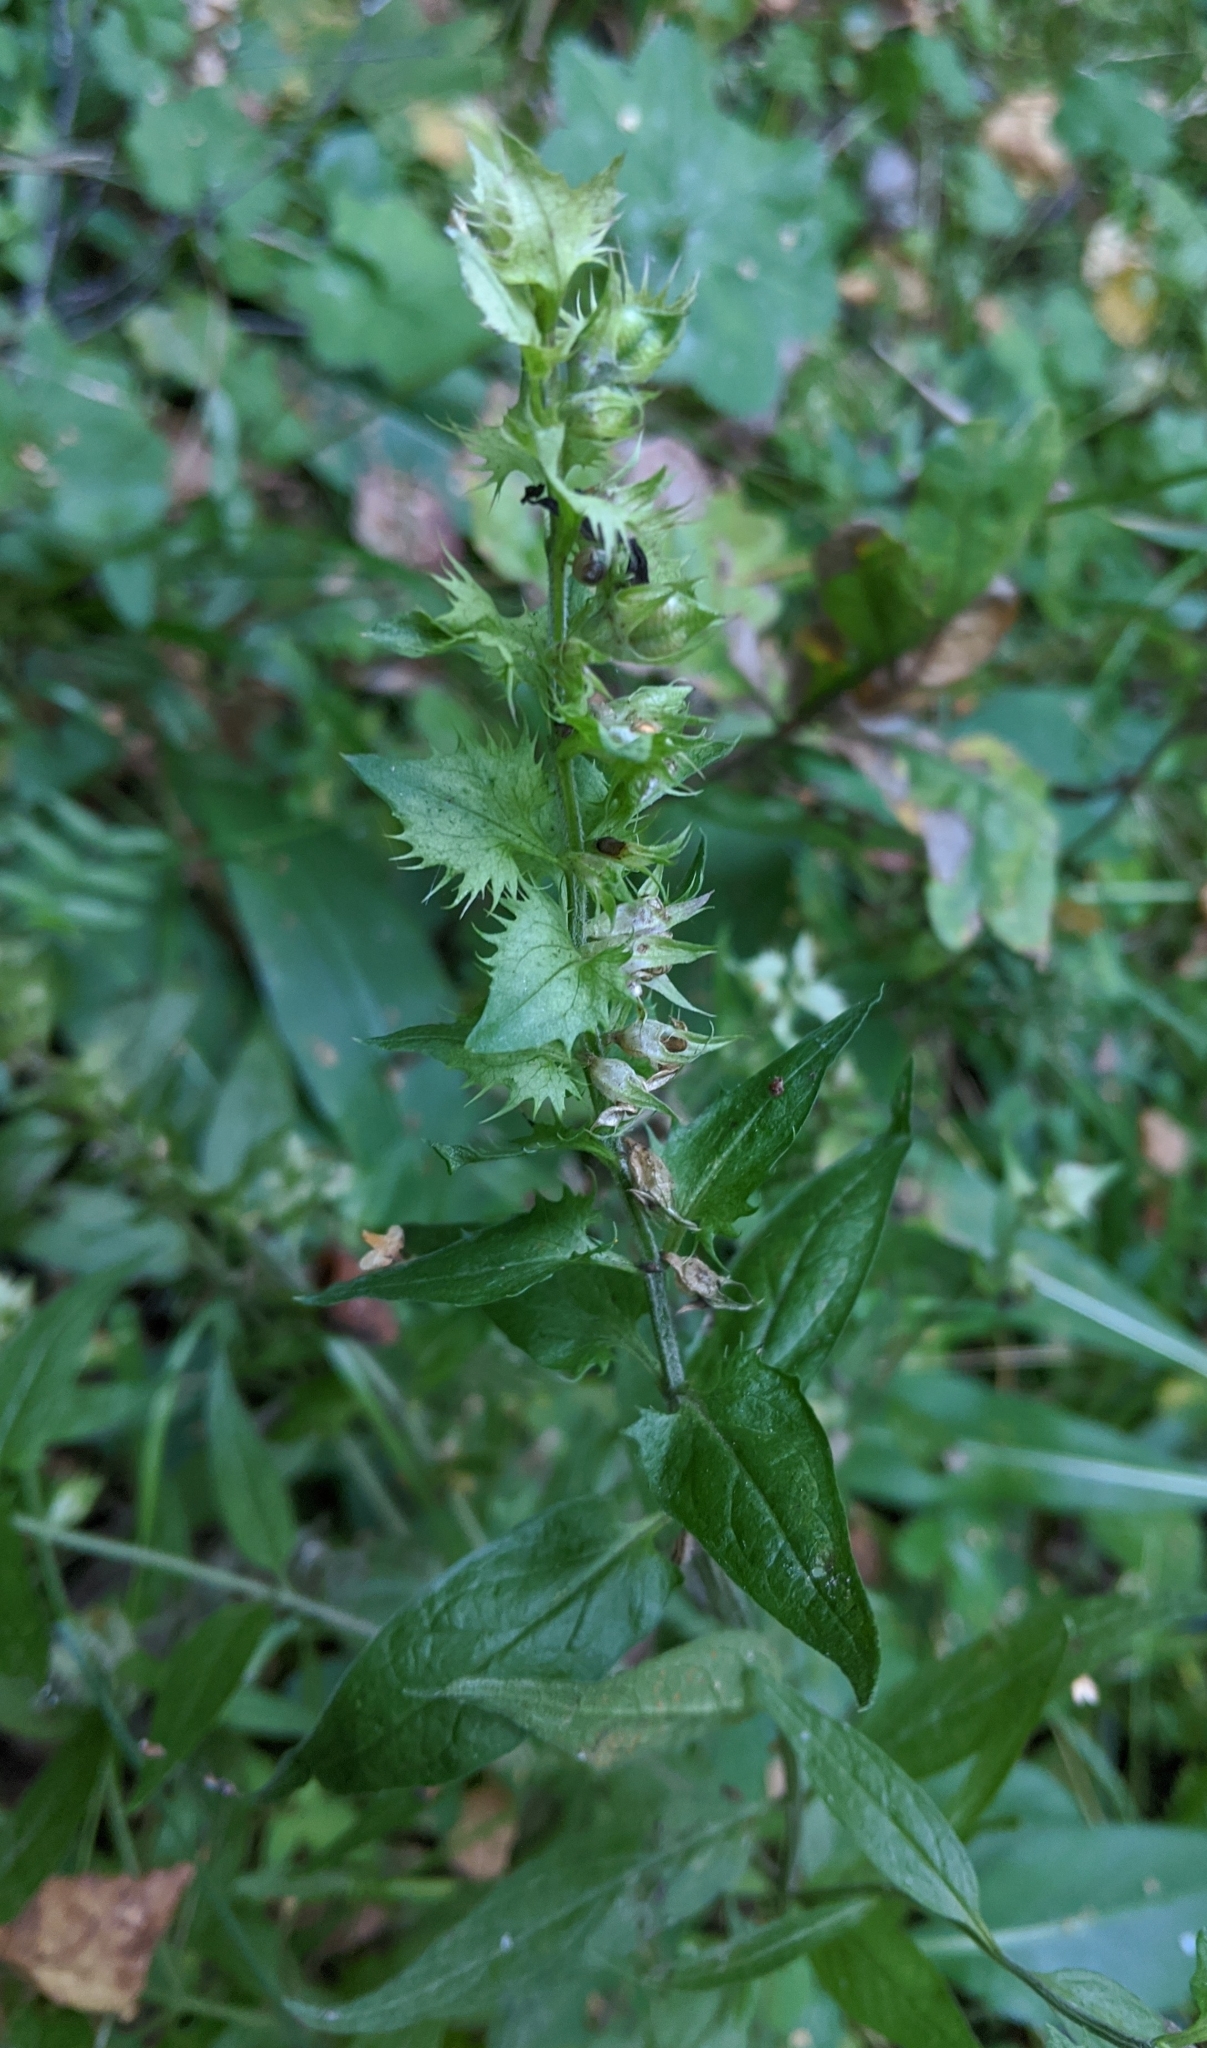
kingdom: Plantae
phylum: Tracheophyta
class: Magnoliopsida
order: Lamiales
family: Orobanchaceae
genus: Melampyrum
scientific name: Melampyrum nemorosum
